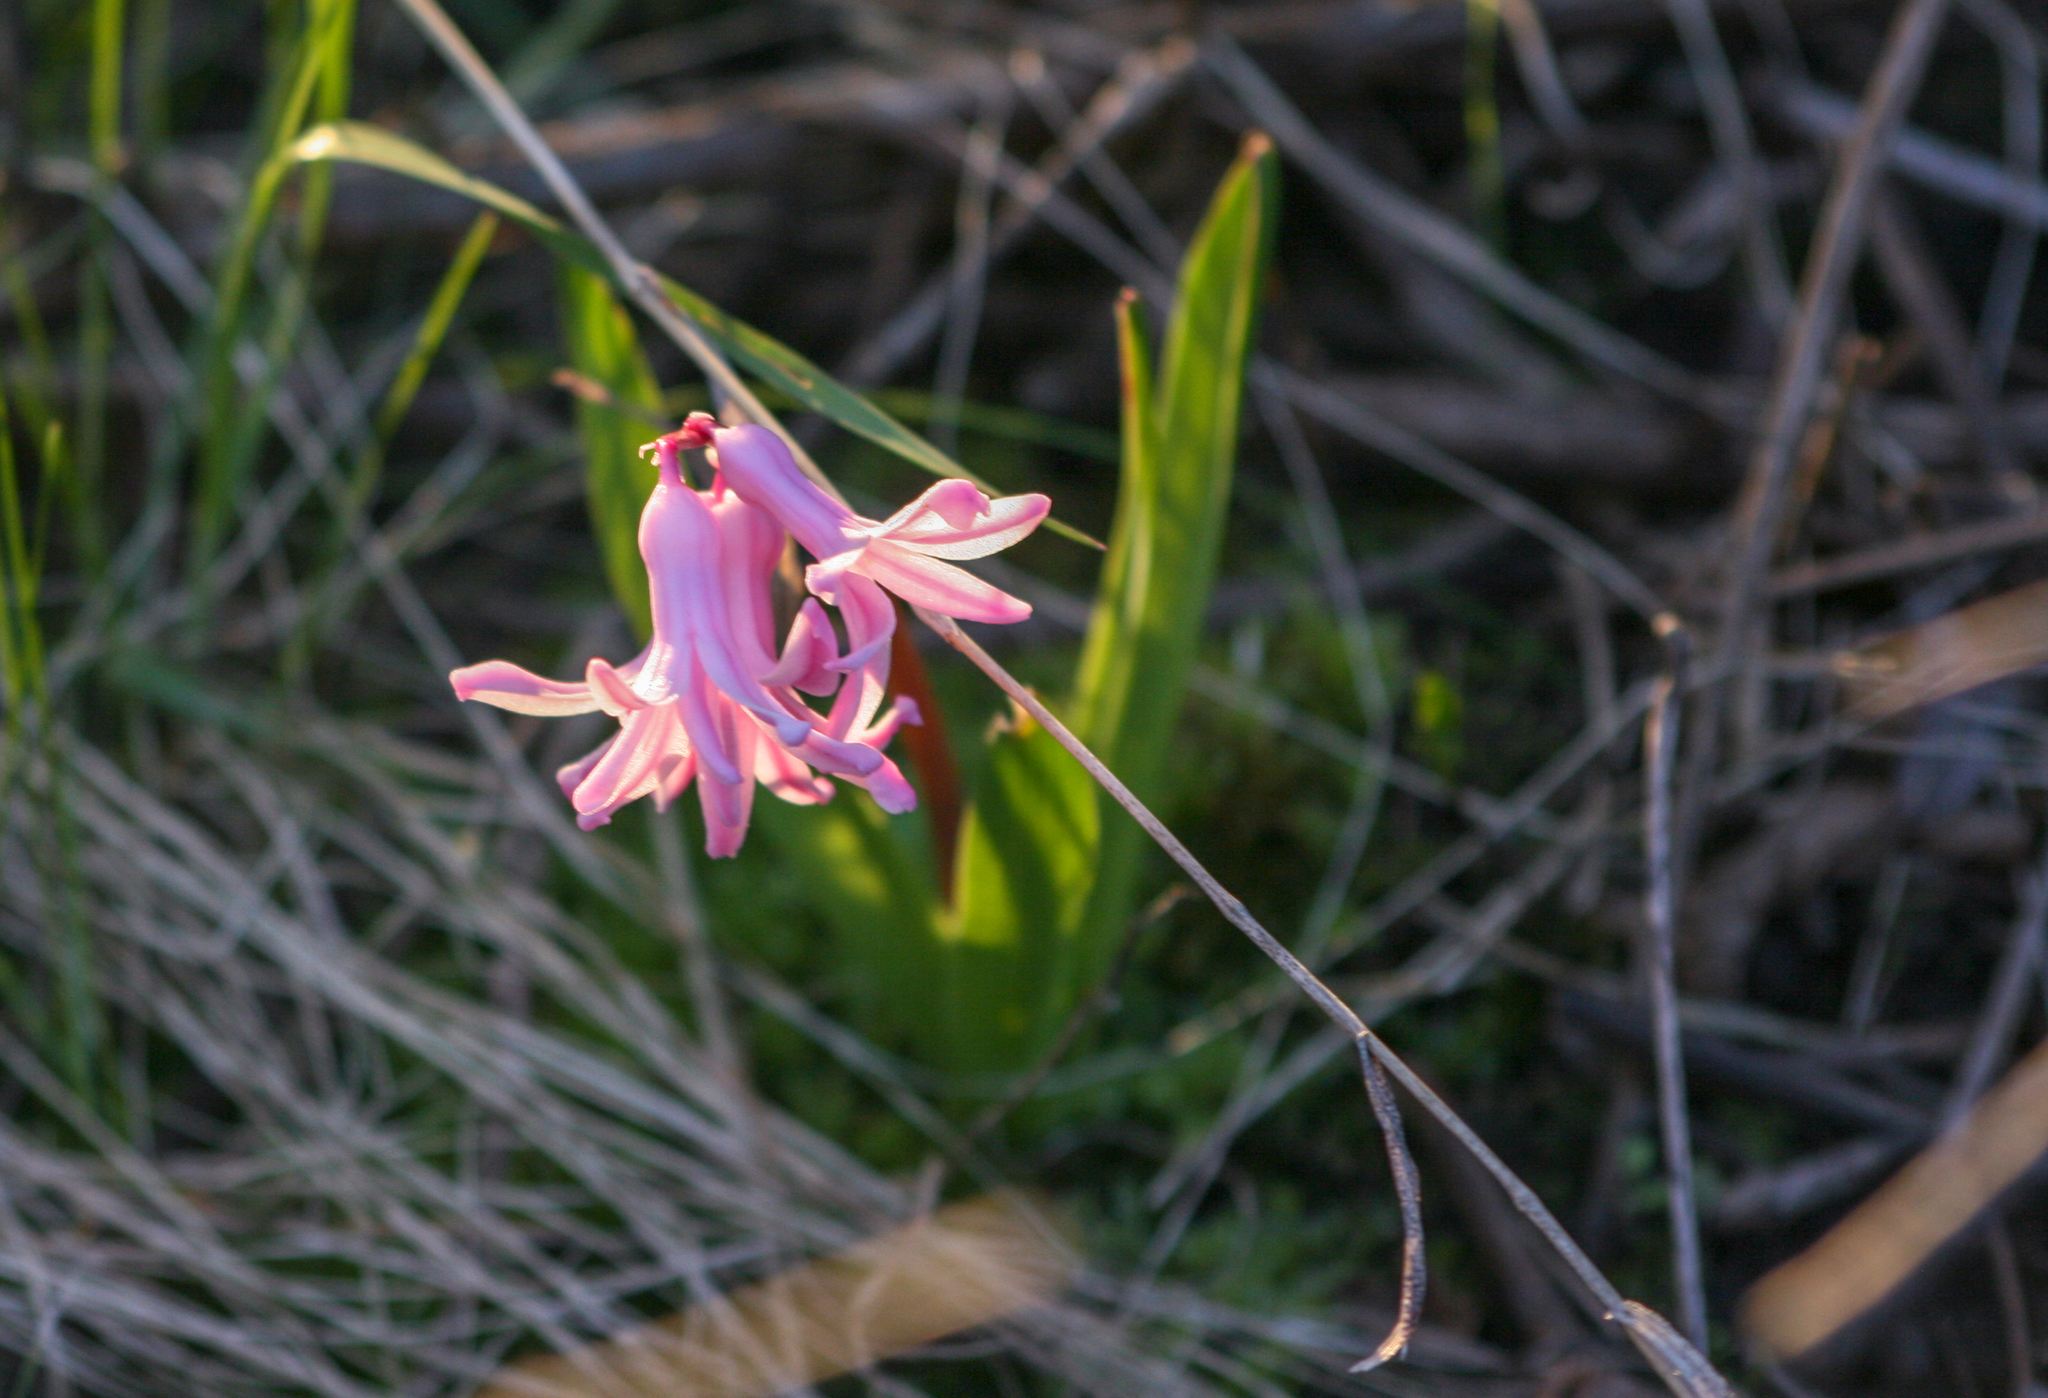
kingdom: Plantae
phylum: Tracheophyta
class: Liliopsida
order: Asparagales
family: Asparagaceae
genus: Hyacinthus
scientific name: Hyacinthus orientalis
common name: Hyacinth
